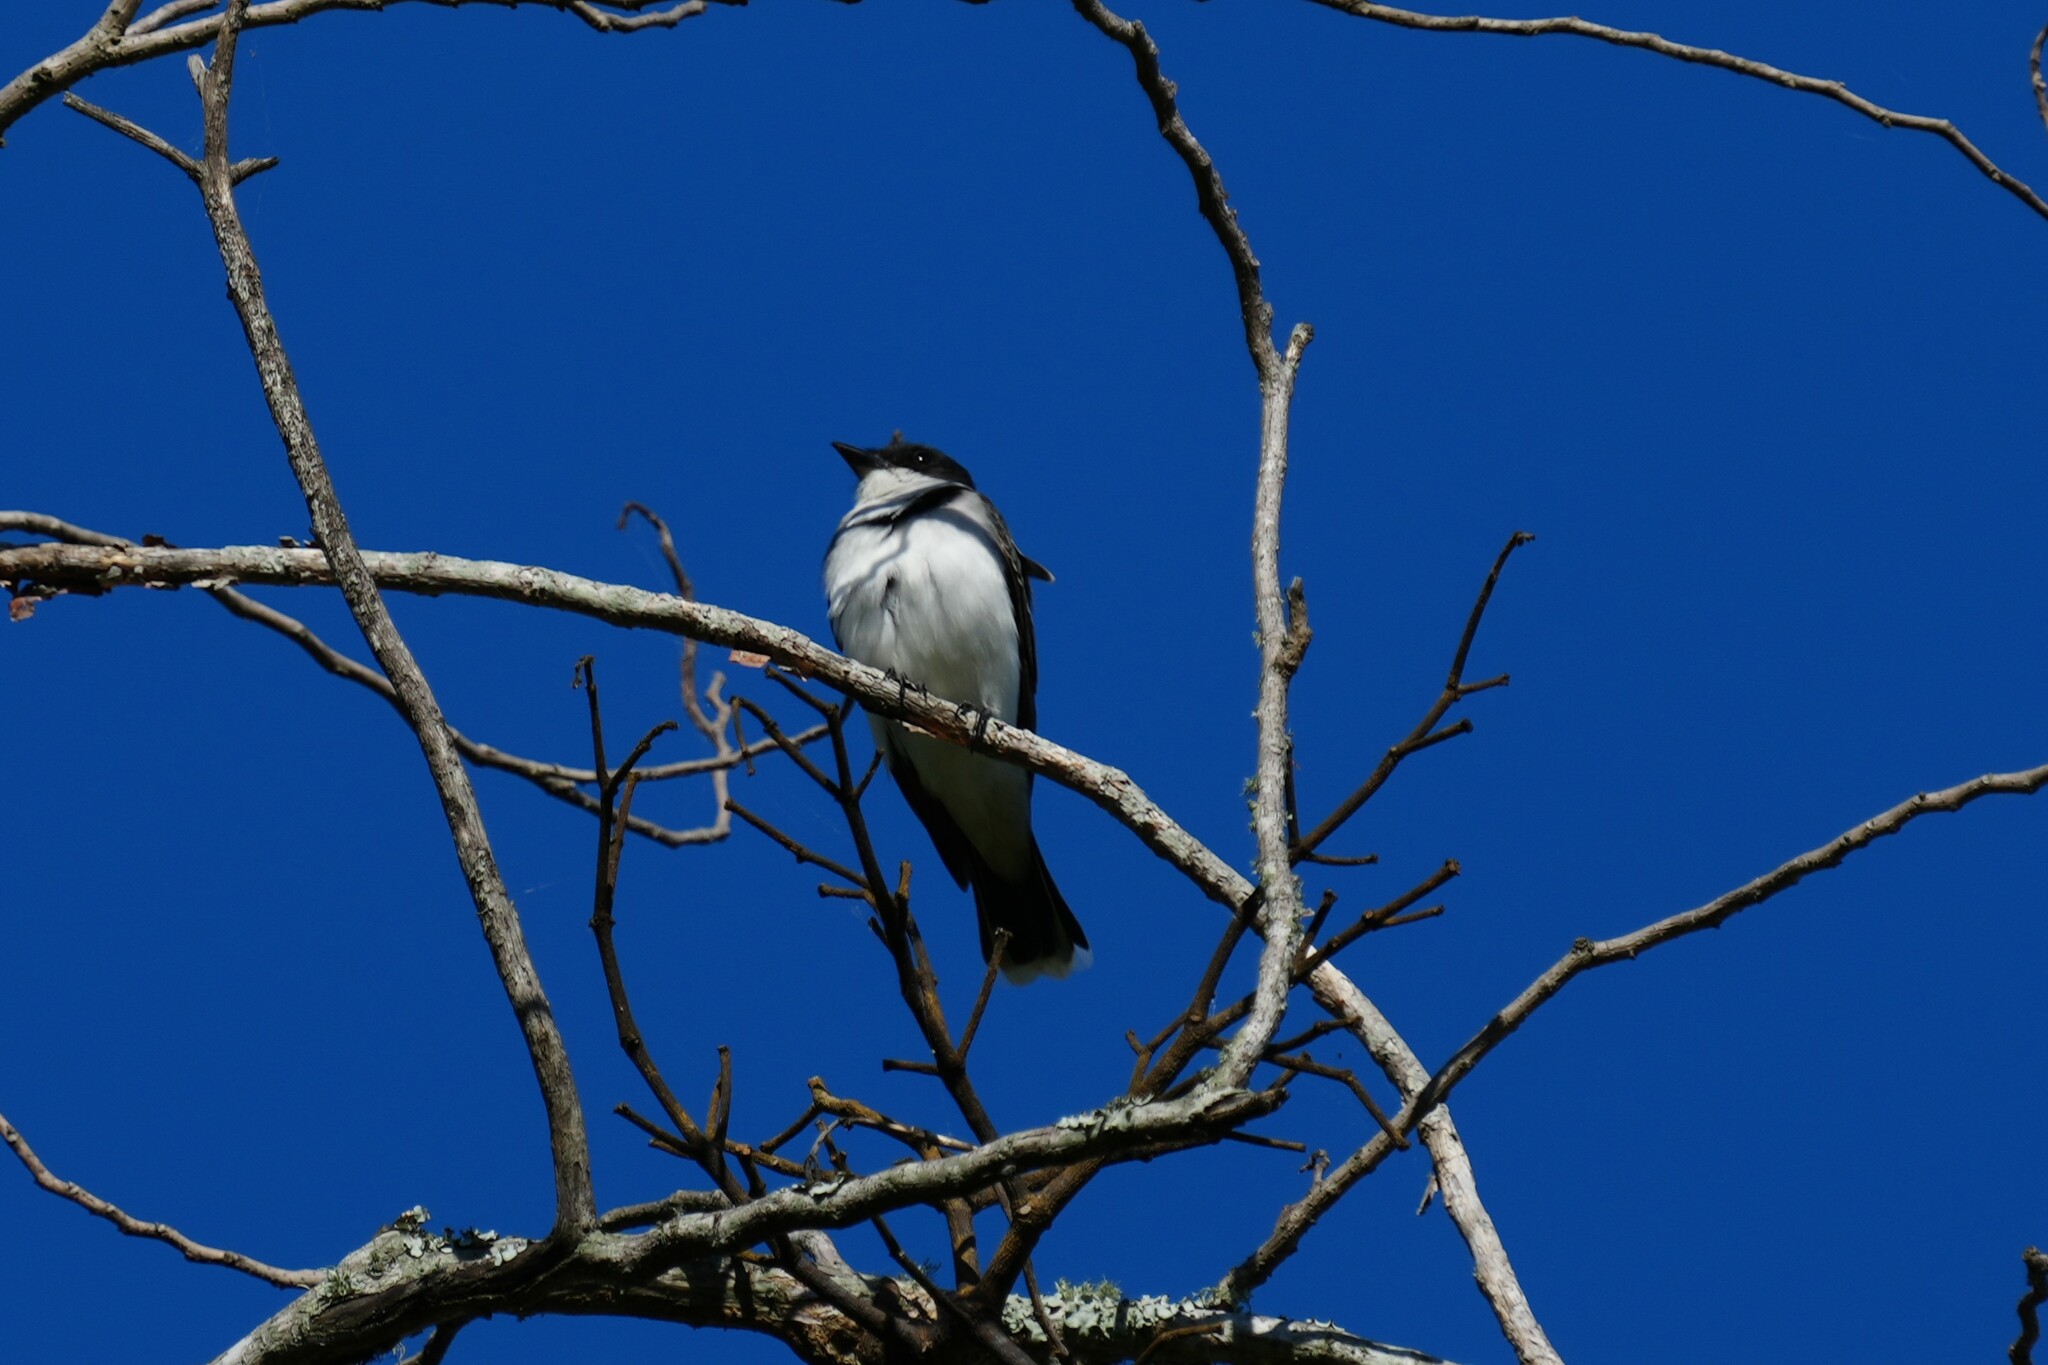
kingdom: Animalia
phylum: Chordata
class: Aves
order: Passeriformes
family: Tyrannidae
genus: Tyrannus
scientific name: Tyrannus tyrannus
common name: Eastern kingbird
